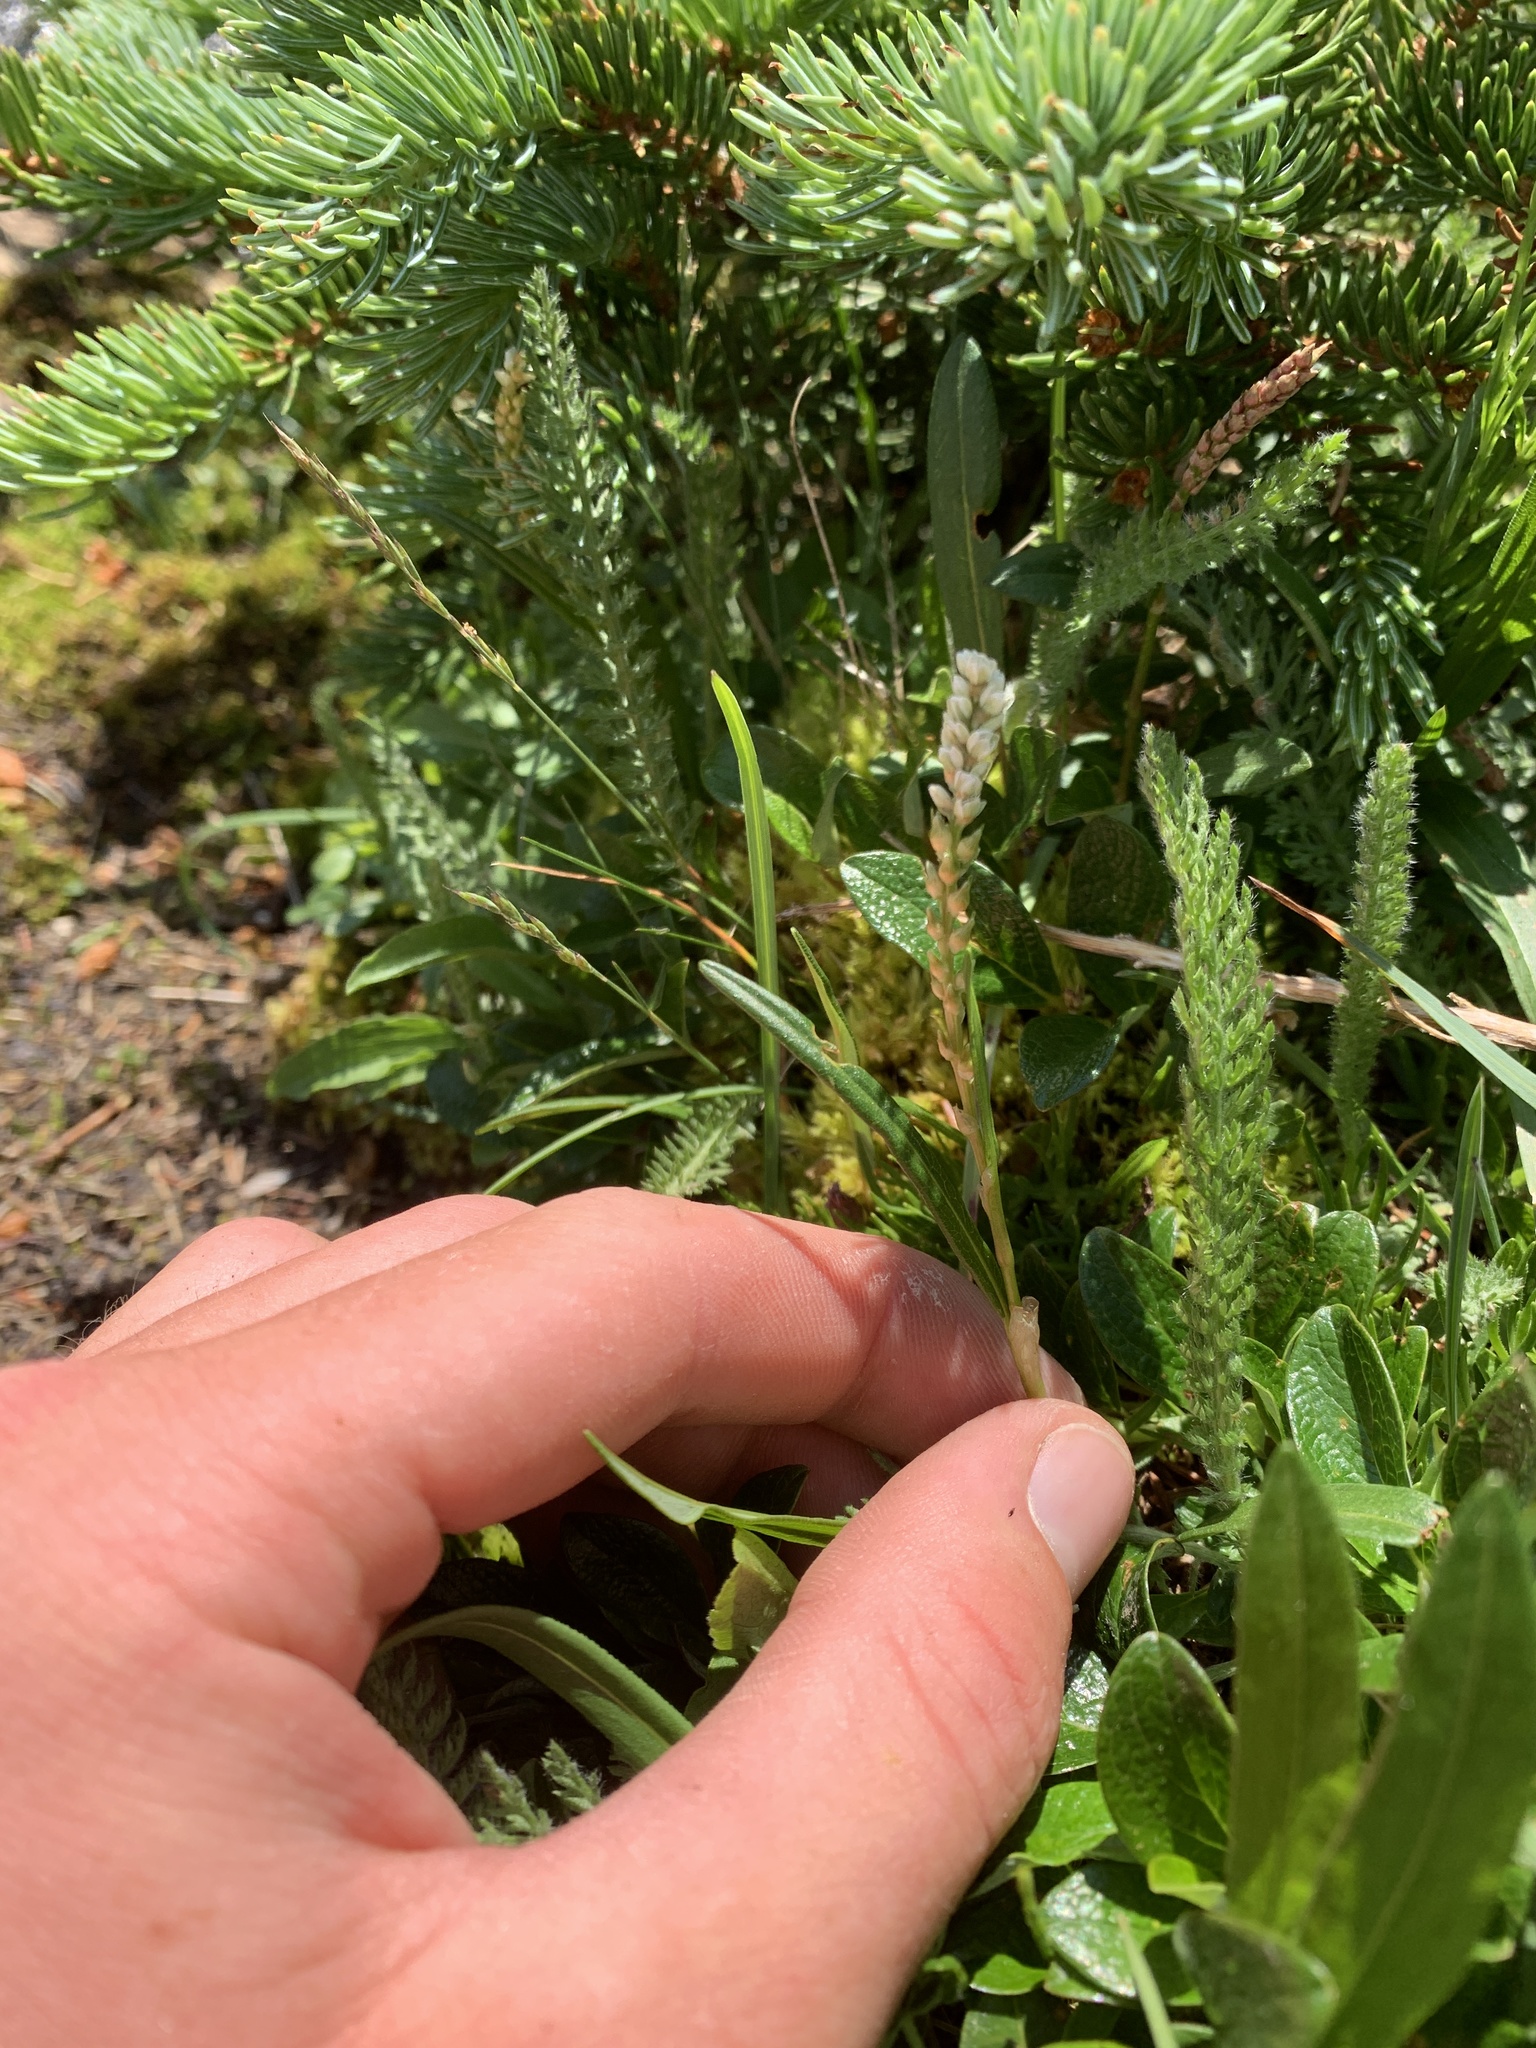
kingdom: Plantae
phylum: Tracheophyta
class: Magnoliopsida
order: Caryophyllales
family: Polygonaceae
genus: Bistorta
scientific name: Bistorta vivipara
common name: Alpine bistort
